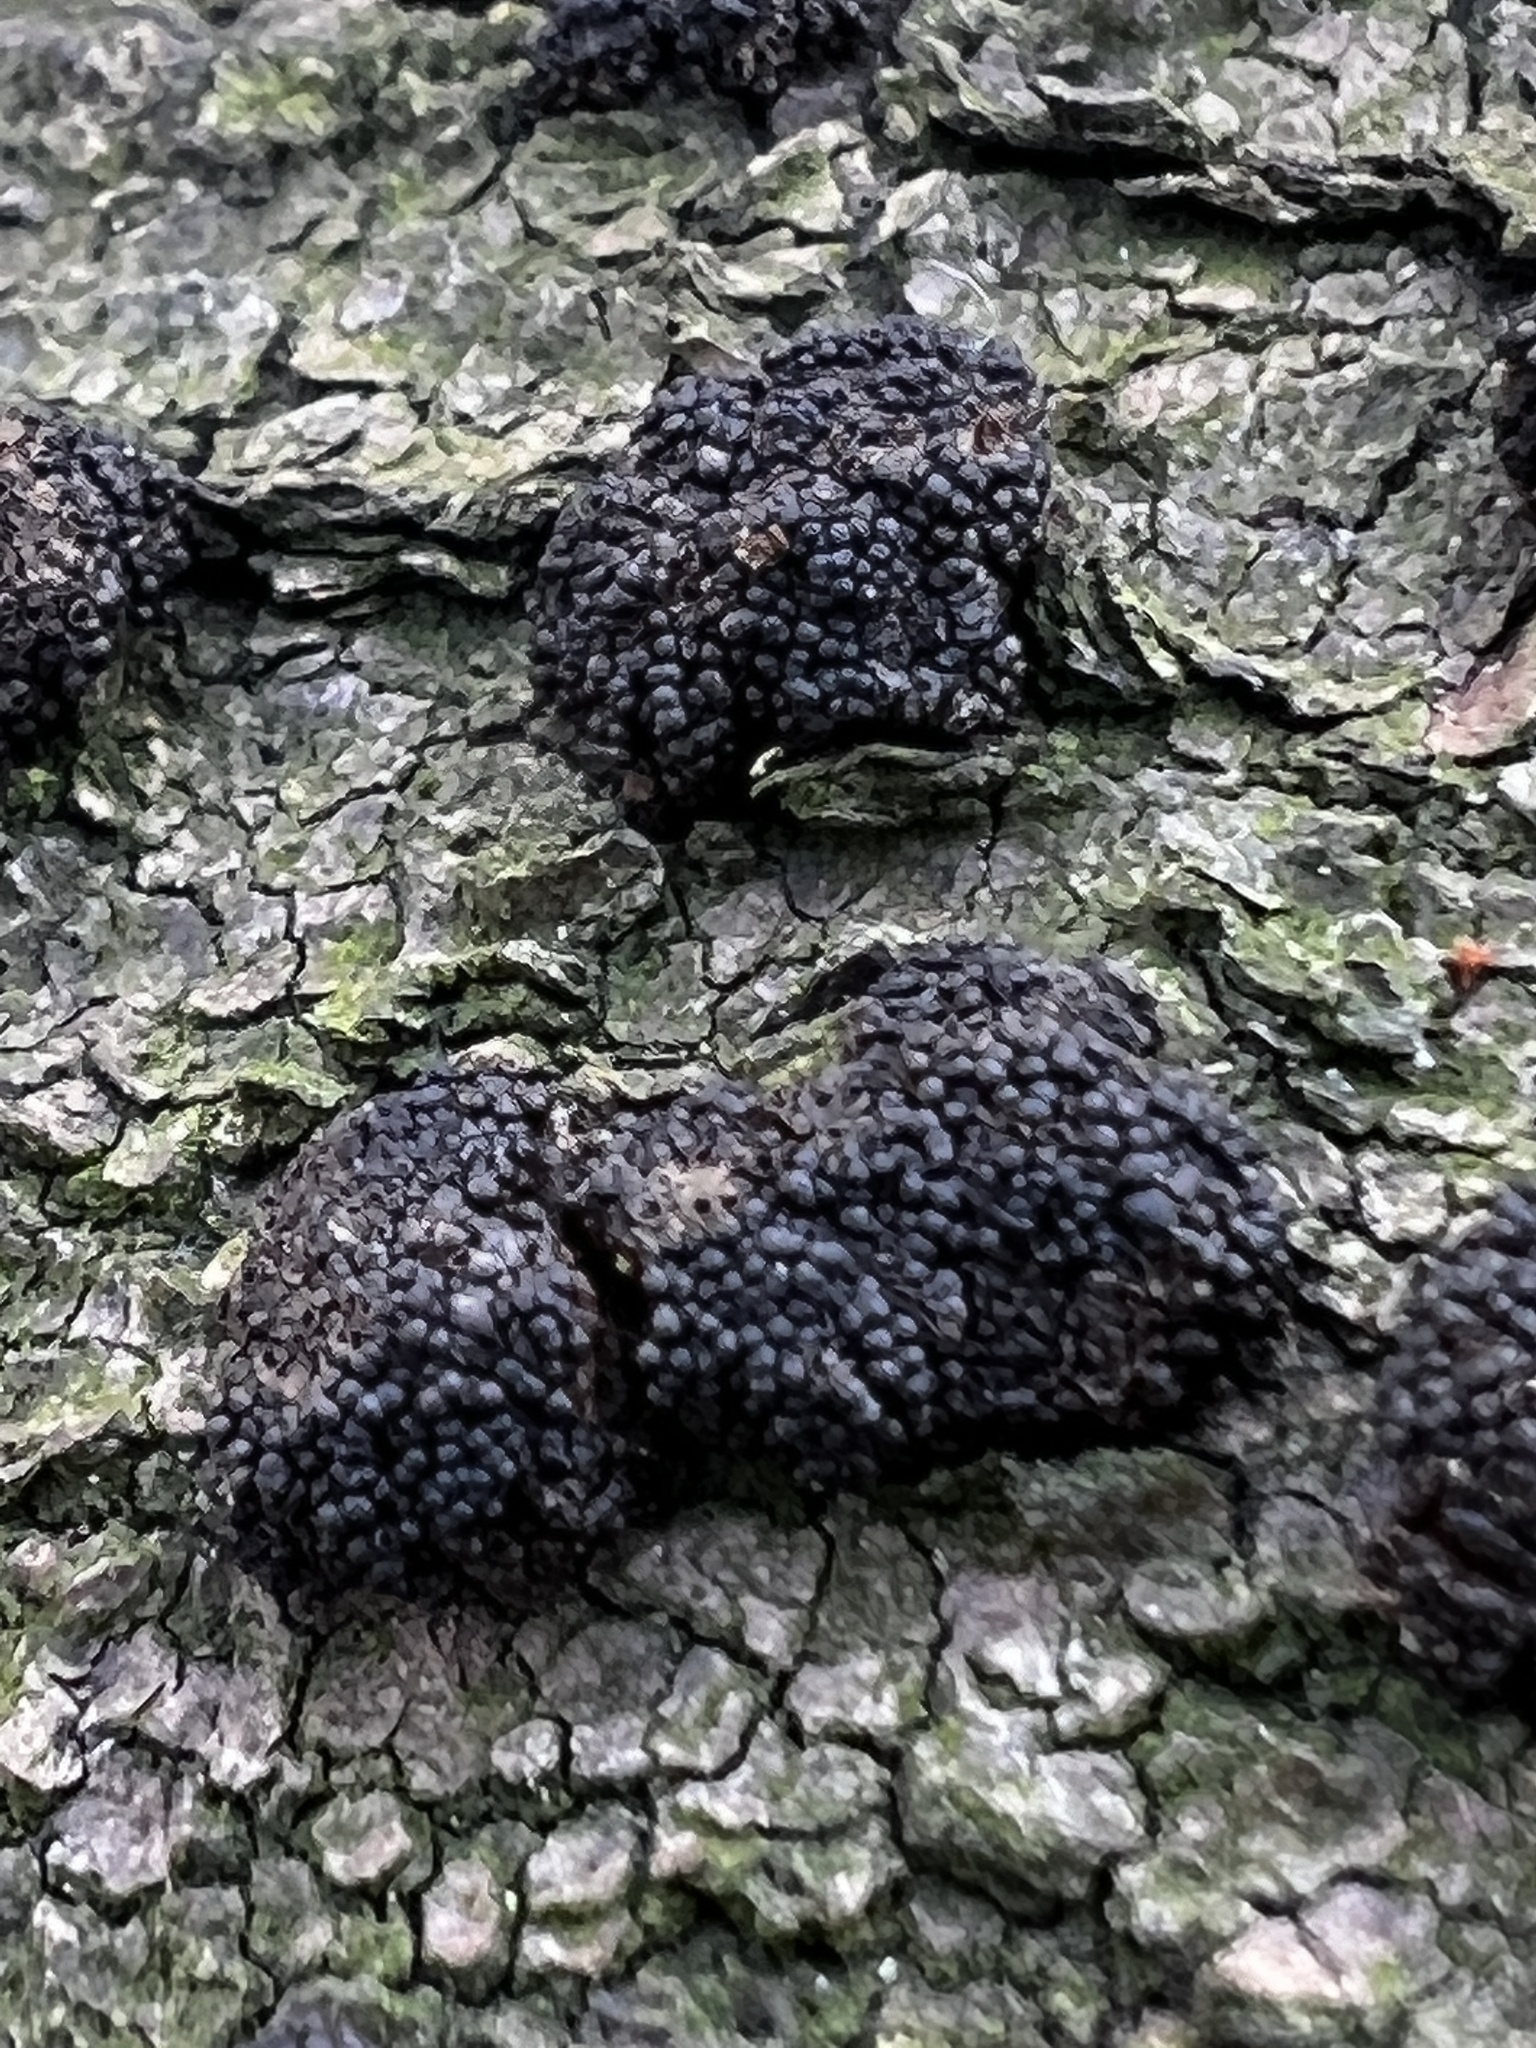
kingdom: Fungi
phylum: Ascomycota
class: Dothideomycetes
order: Pleosporales
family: Teichosporaceae
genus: Immotthia
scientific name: Immotthia atrograna
